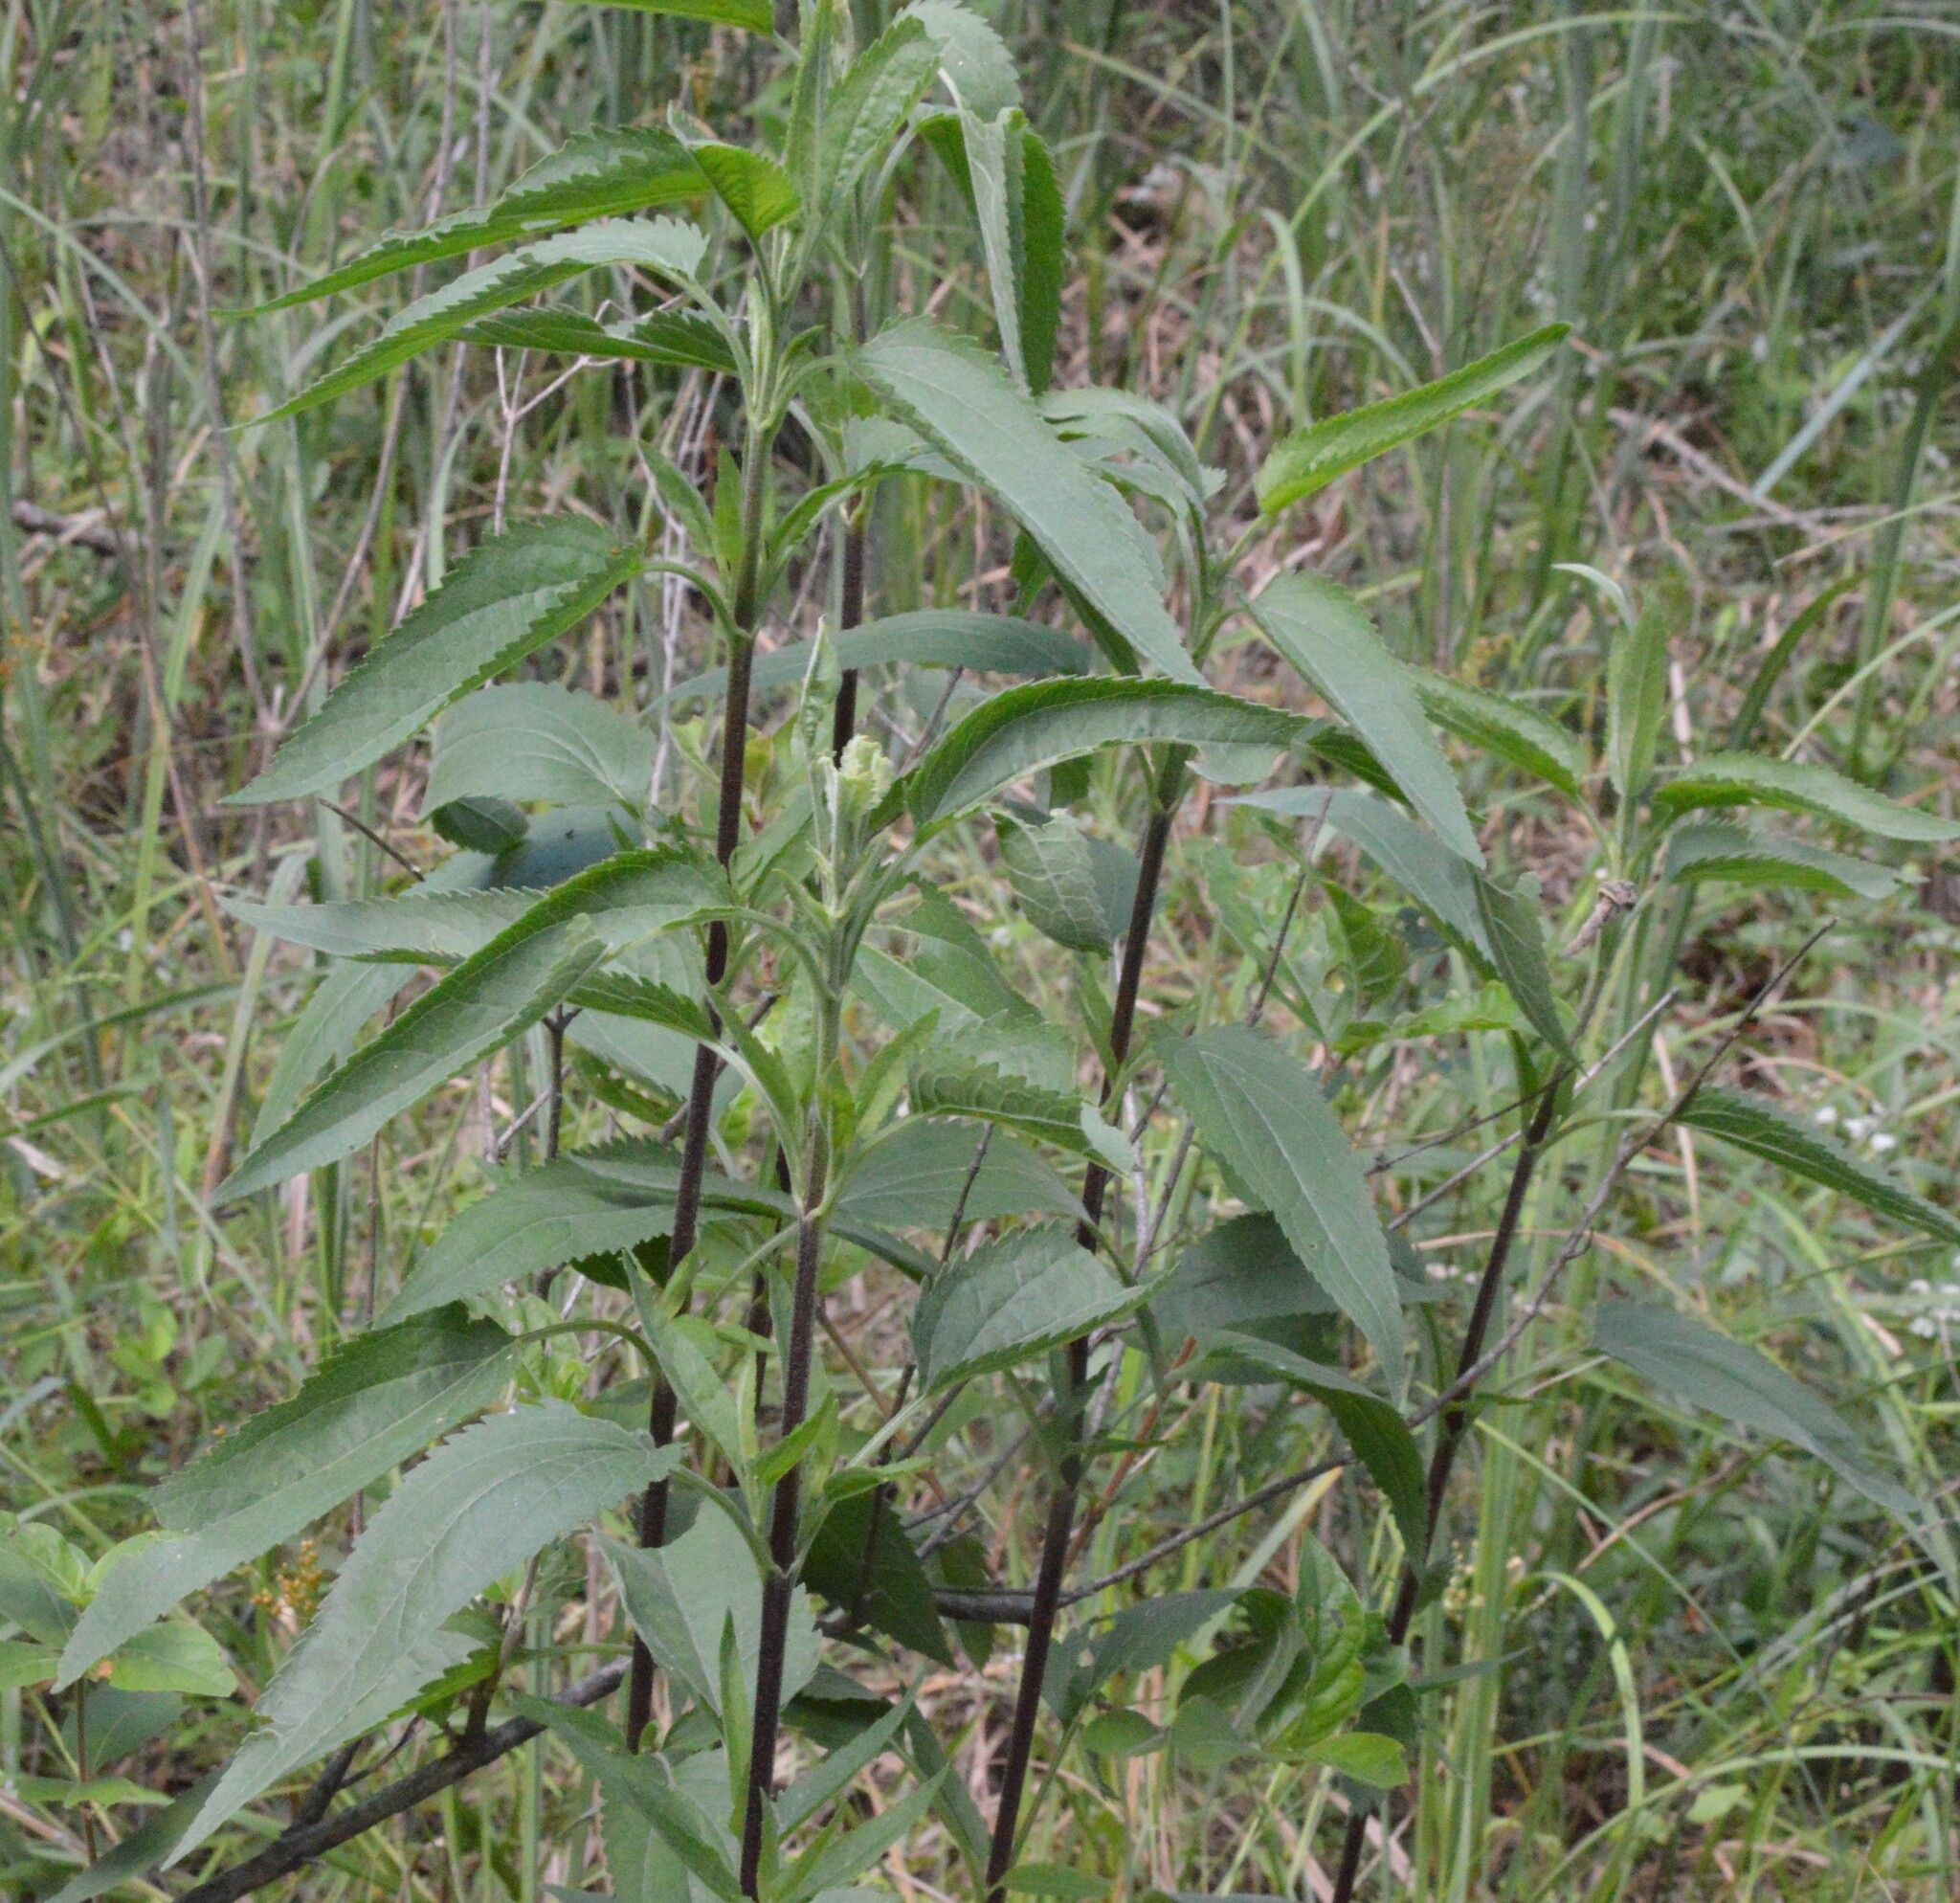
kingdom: Plantae
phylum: Tracheophyta
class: Magnoliopsida
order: Asterales
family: Asteraceae
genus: Eupatorium
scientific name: Eupatorium serotinum
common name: Late boneset
